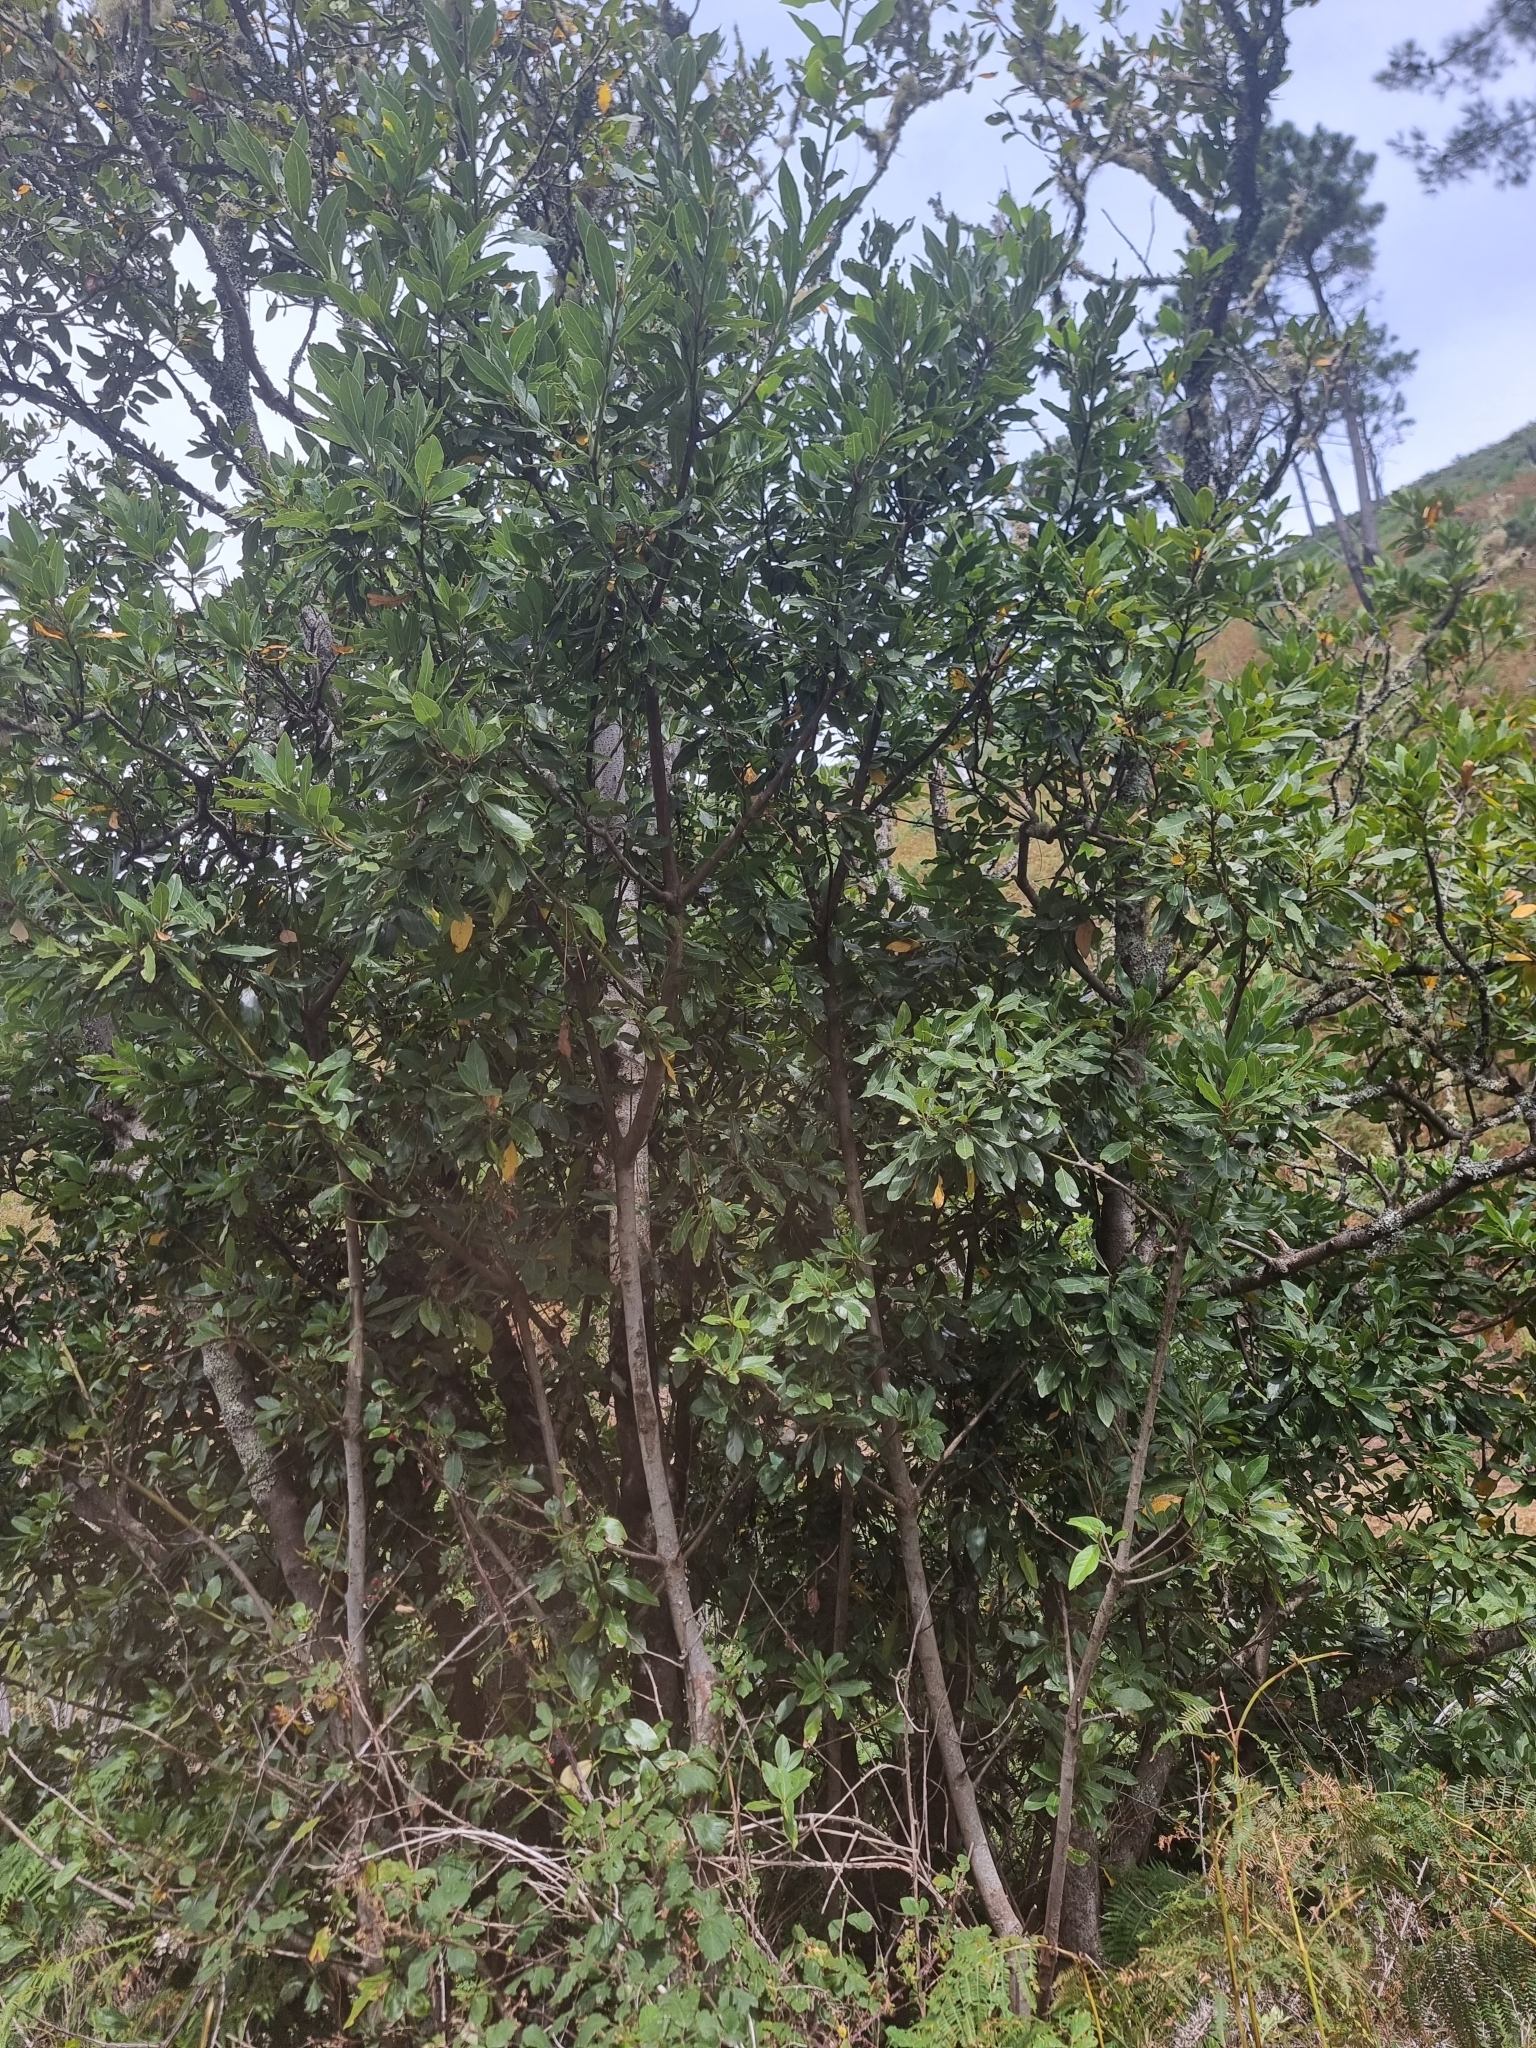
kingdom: Plantae
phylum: Tracheophyta
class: Magnoliopsida
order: Laurales
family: Lauraceae
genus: Laurus
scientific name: Laurus novocanariensis
